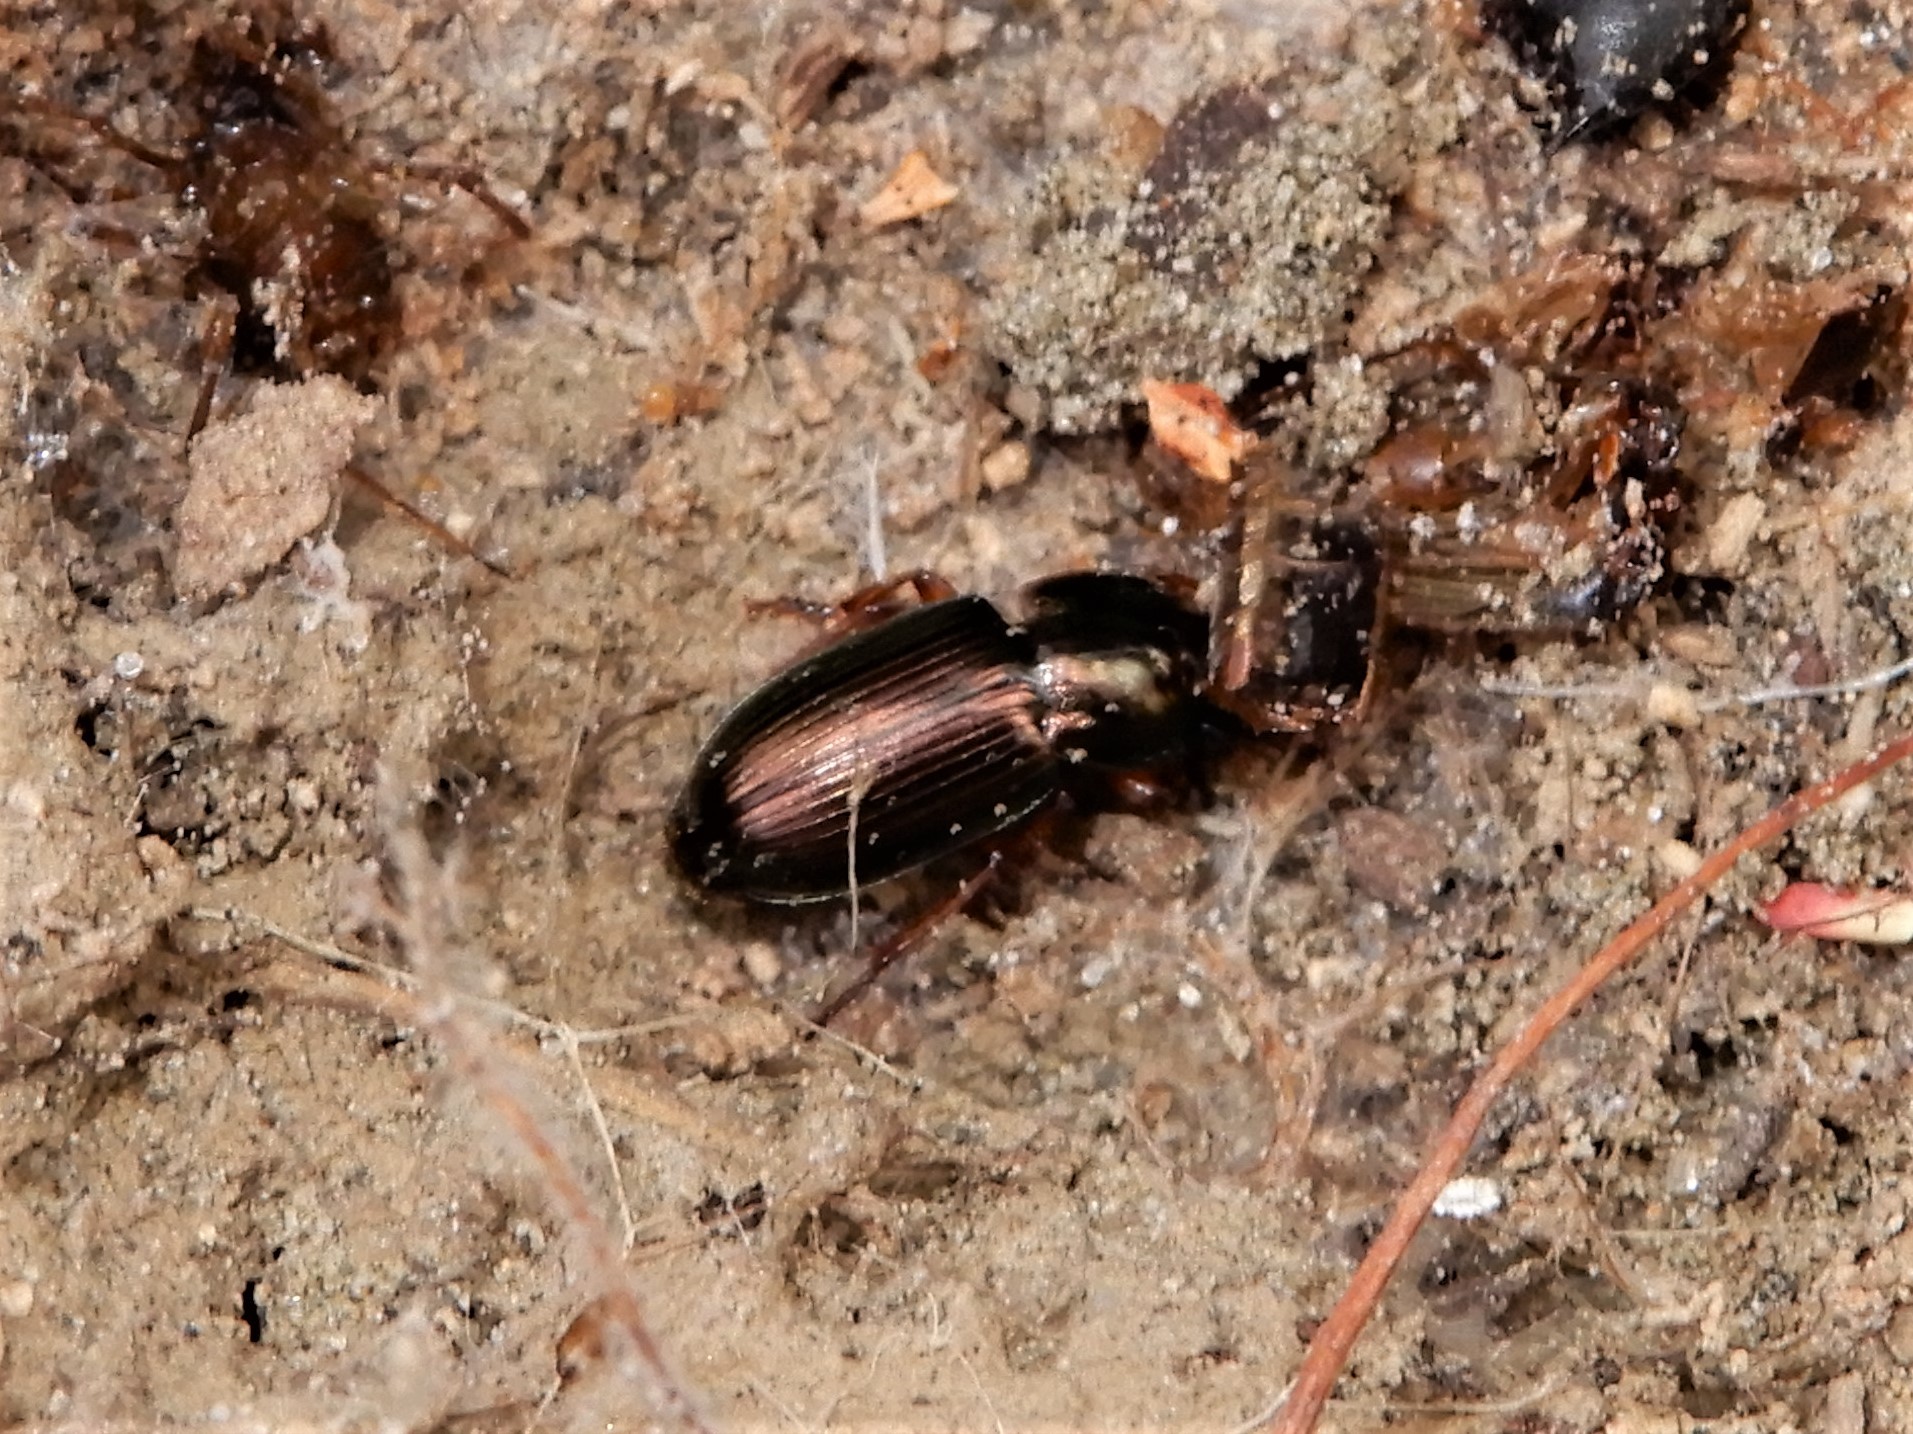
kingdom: Animalia
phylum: Arthropoda
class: Insecta
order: Coleoptera
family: Carabidae
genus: Harpalus
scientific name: Harpalus affinis
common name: Polychrome harp ground beetle
